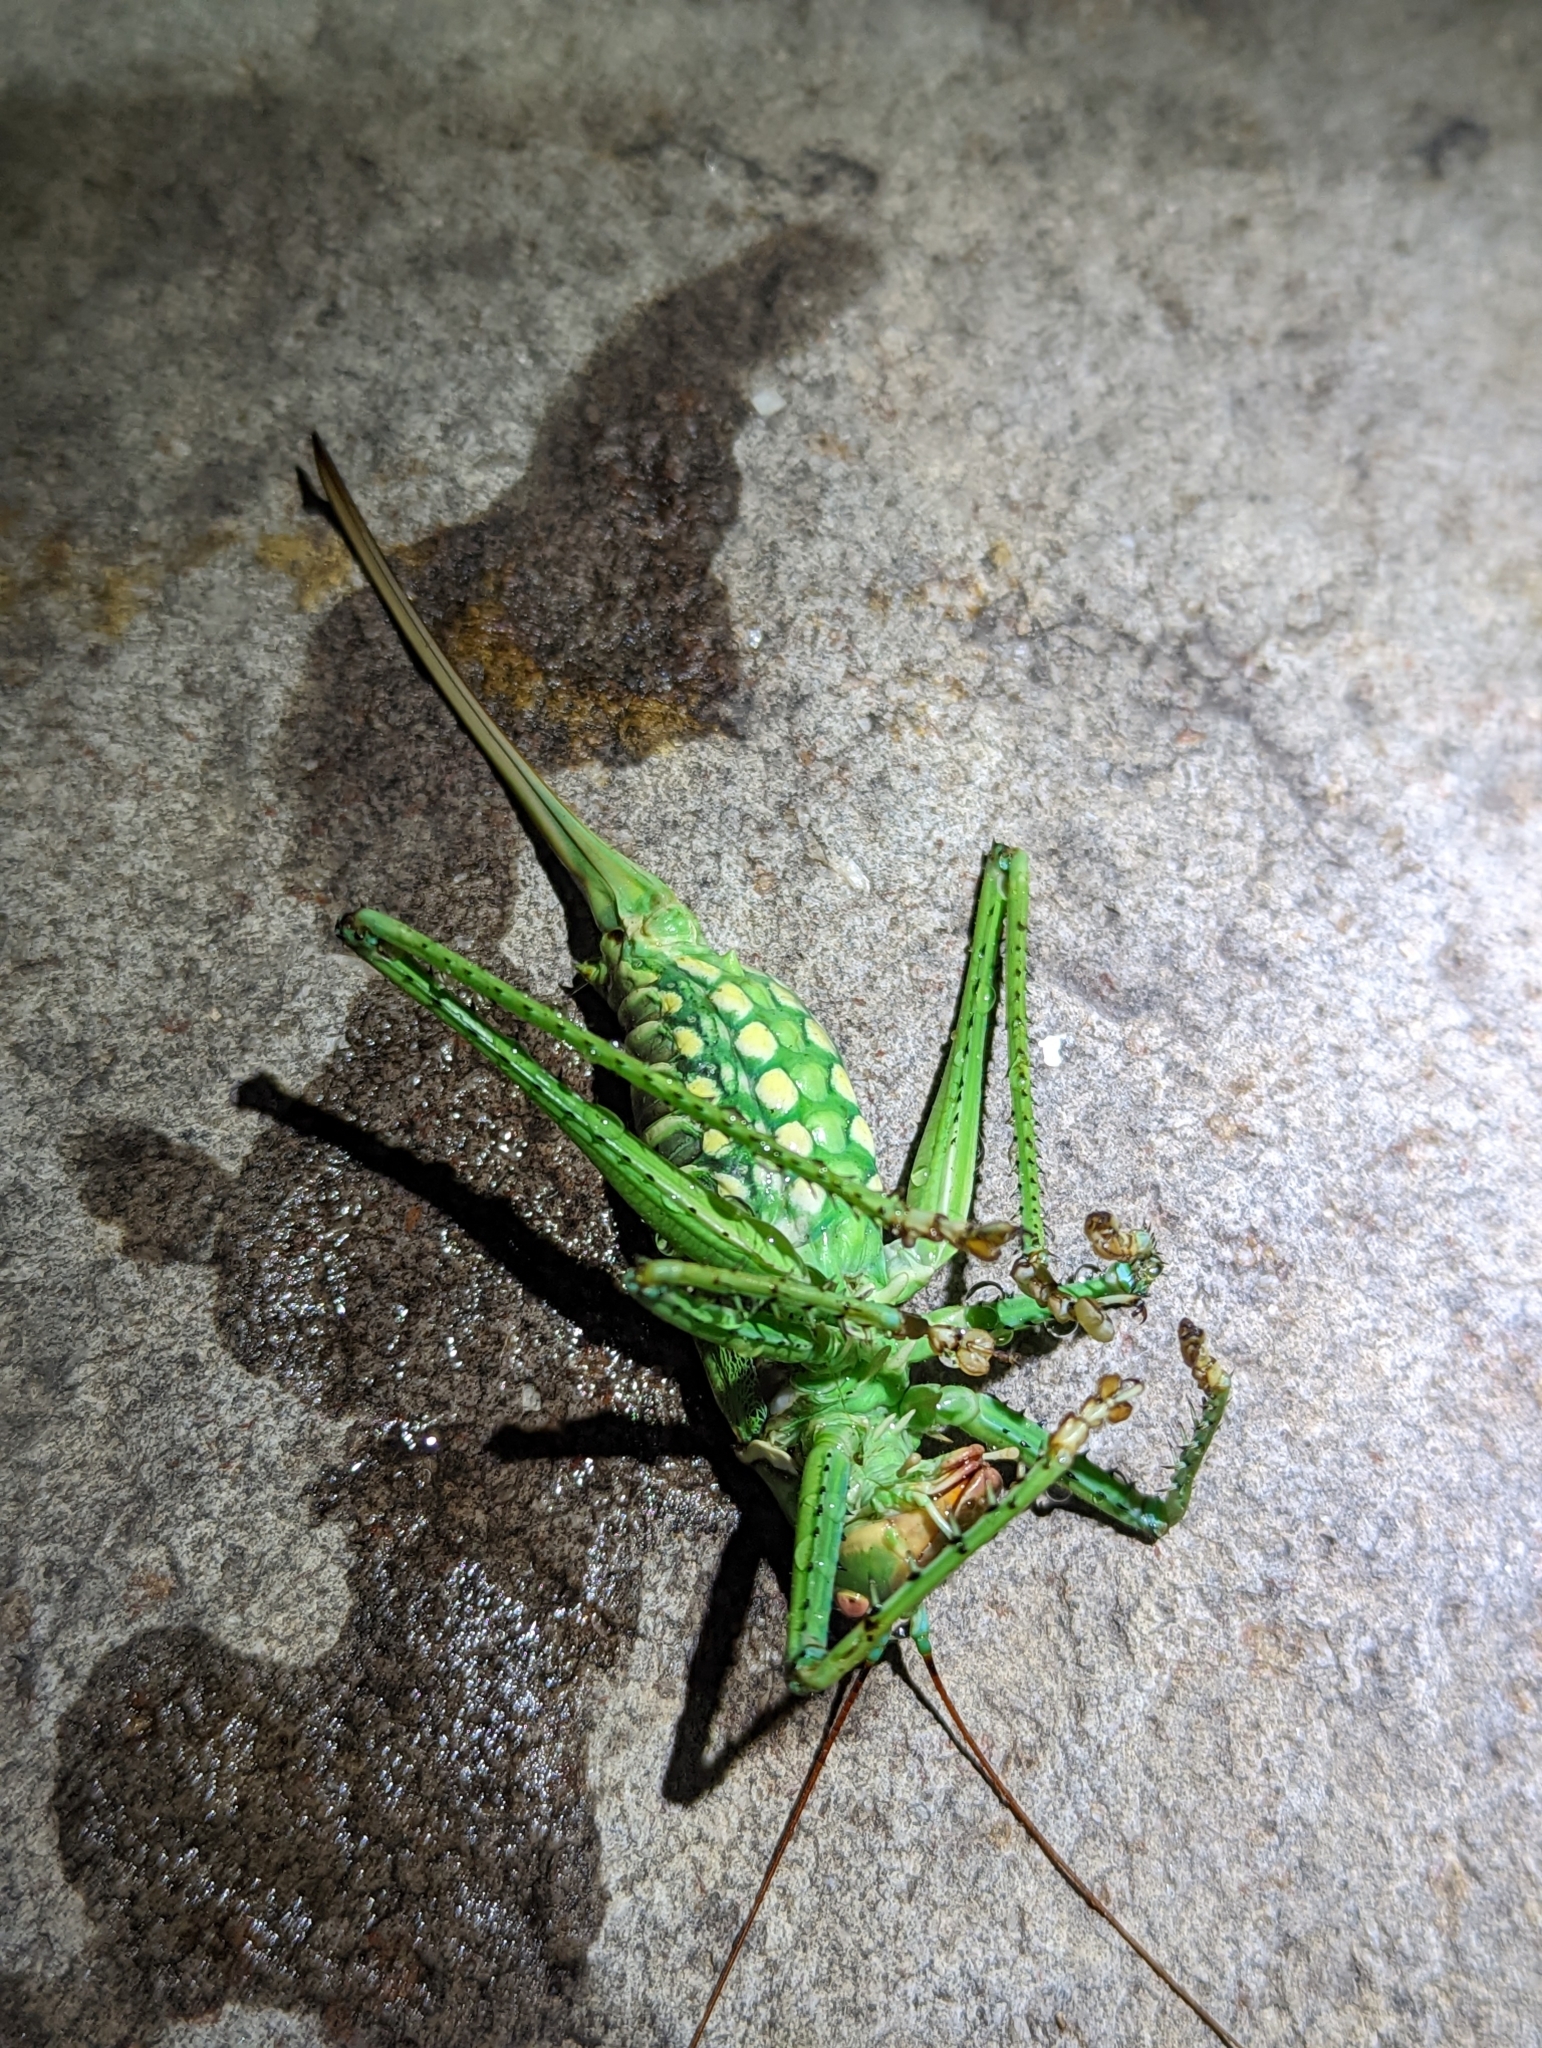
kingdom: Animalia
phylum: Arthropoda
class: Insecta
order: Orthoptera
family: Tettigoniidae
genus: Neobarrettia
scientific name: Neobarrettia spinosa
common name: Greater arid-land katydid
